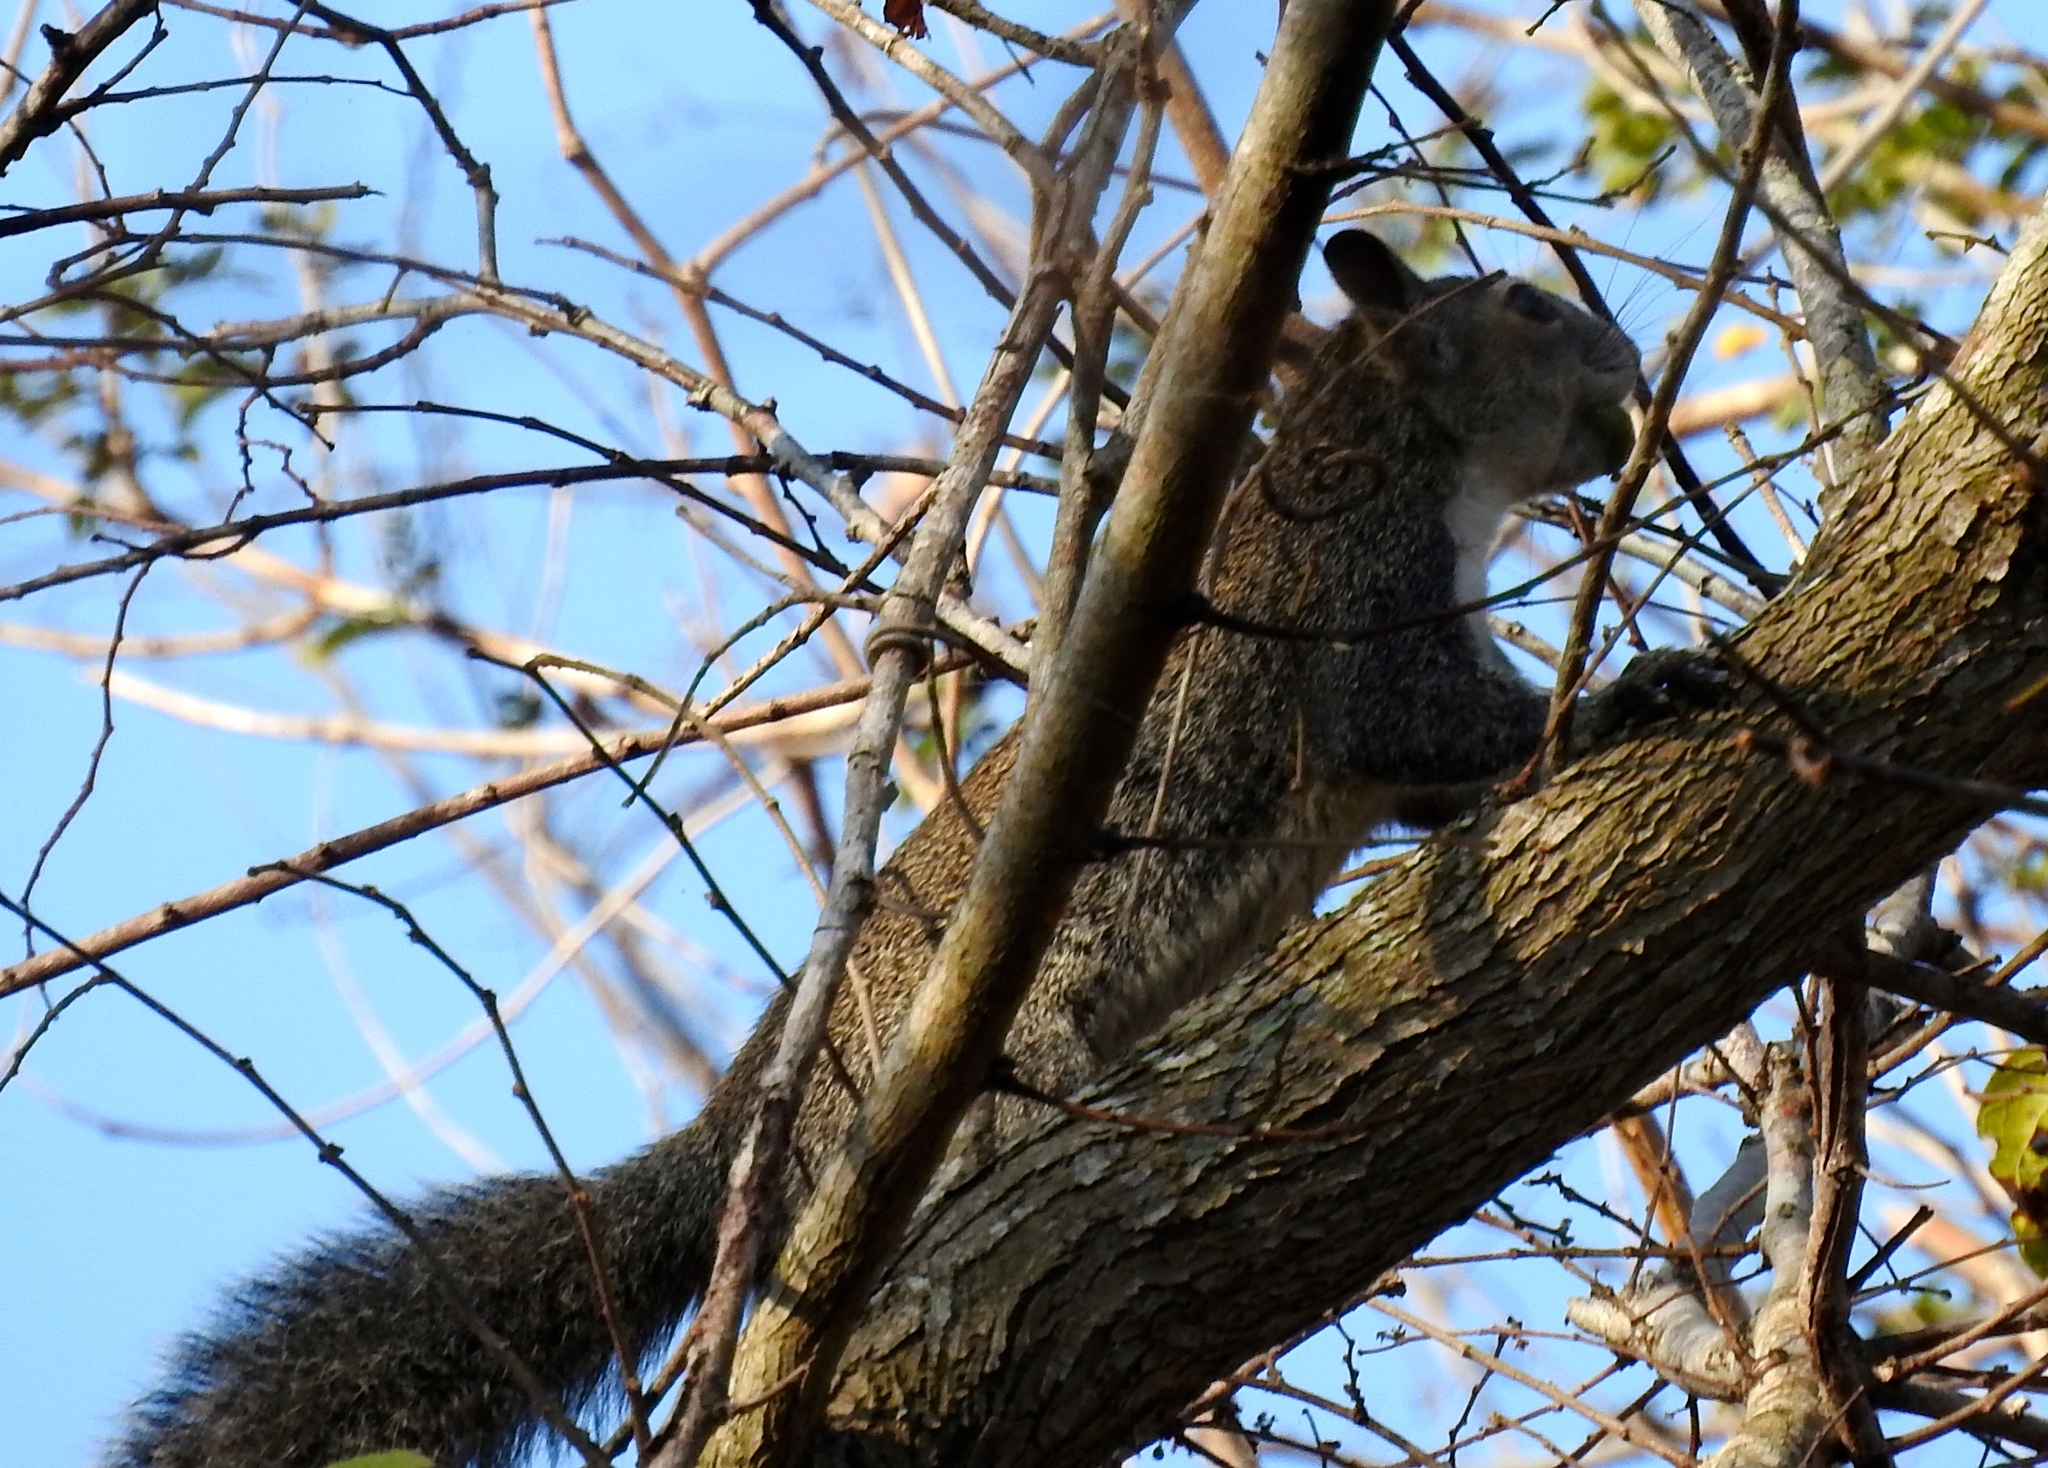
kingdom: Animalia
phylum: Chordata
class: Mammalia
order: Rodentia
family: Sciuridae
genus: Sciurus
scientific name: Sciurus colliaei
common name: Collie's squirrel
